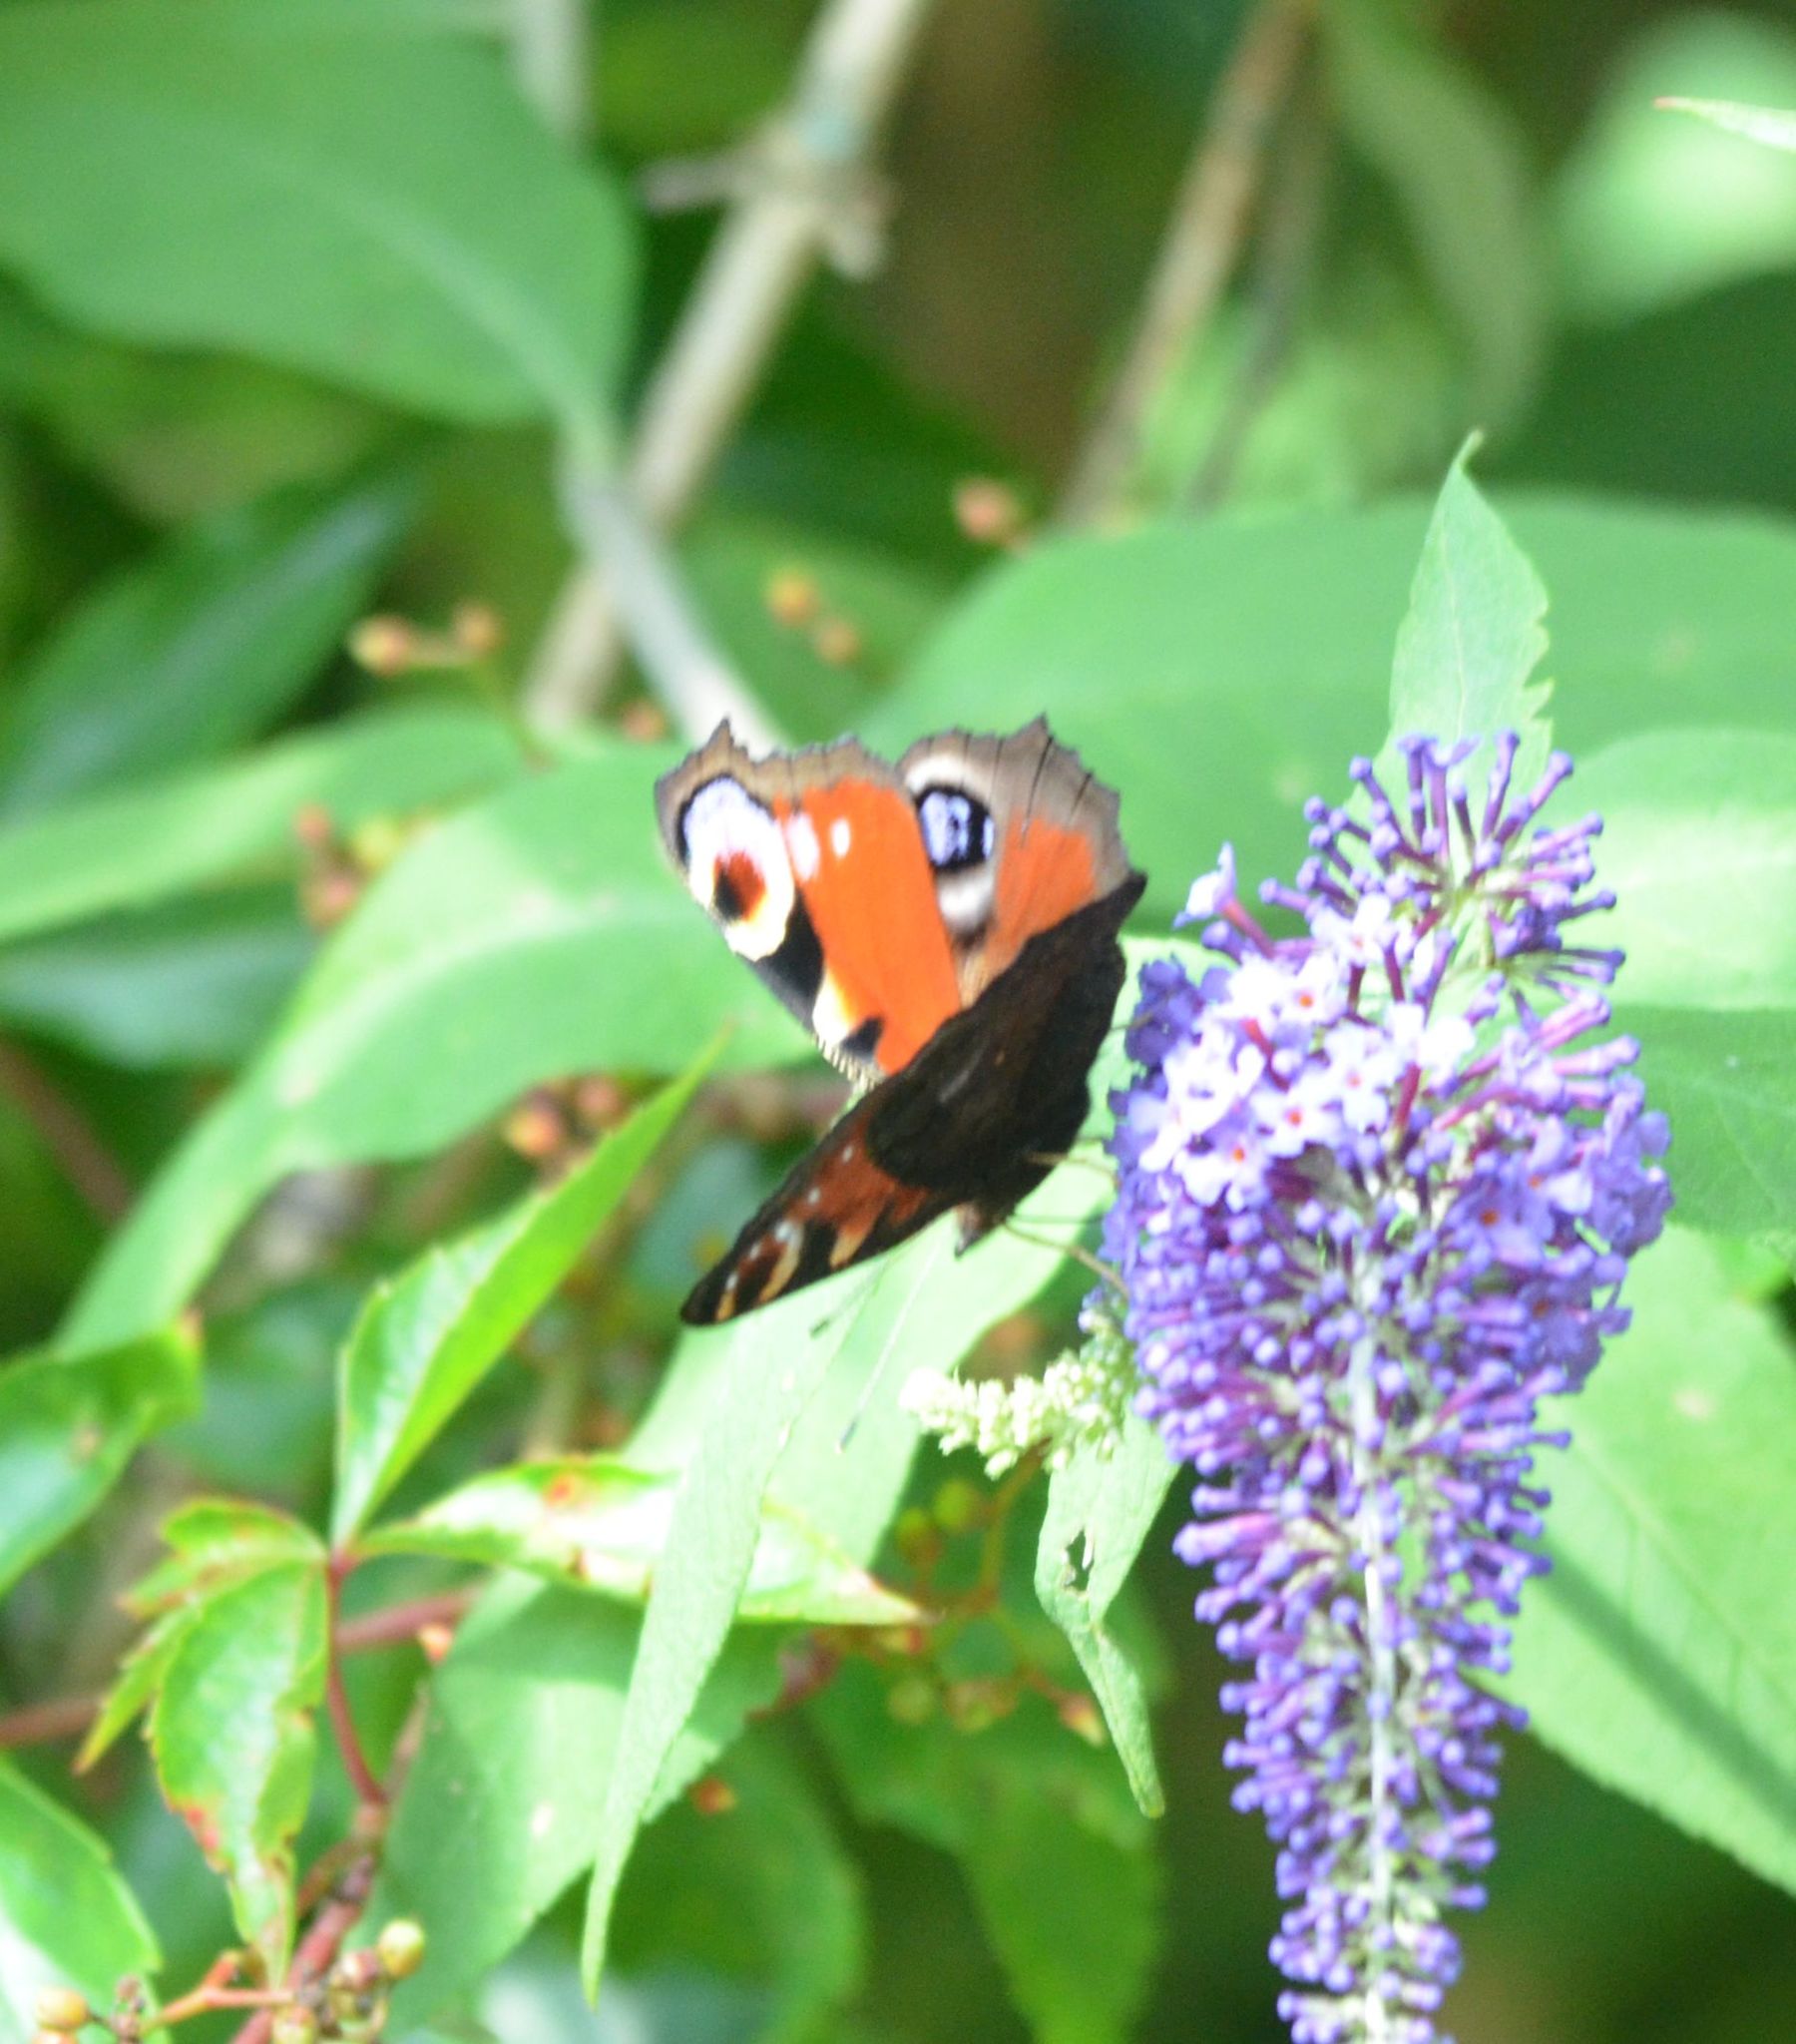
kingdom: Animalia
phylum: Arthropoda
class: Insecta
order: Lepidoptera
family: Nymphalidae
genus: Aglais
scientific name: Aglais io
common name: Peacock
